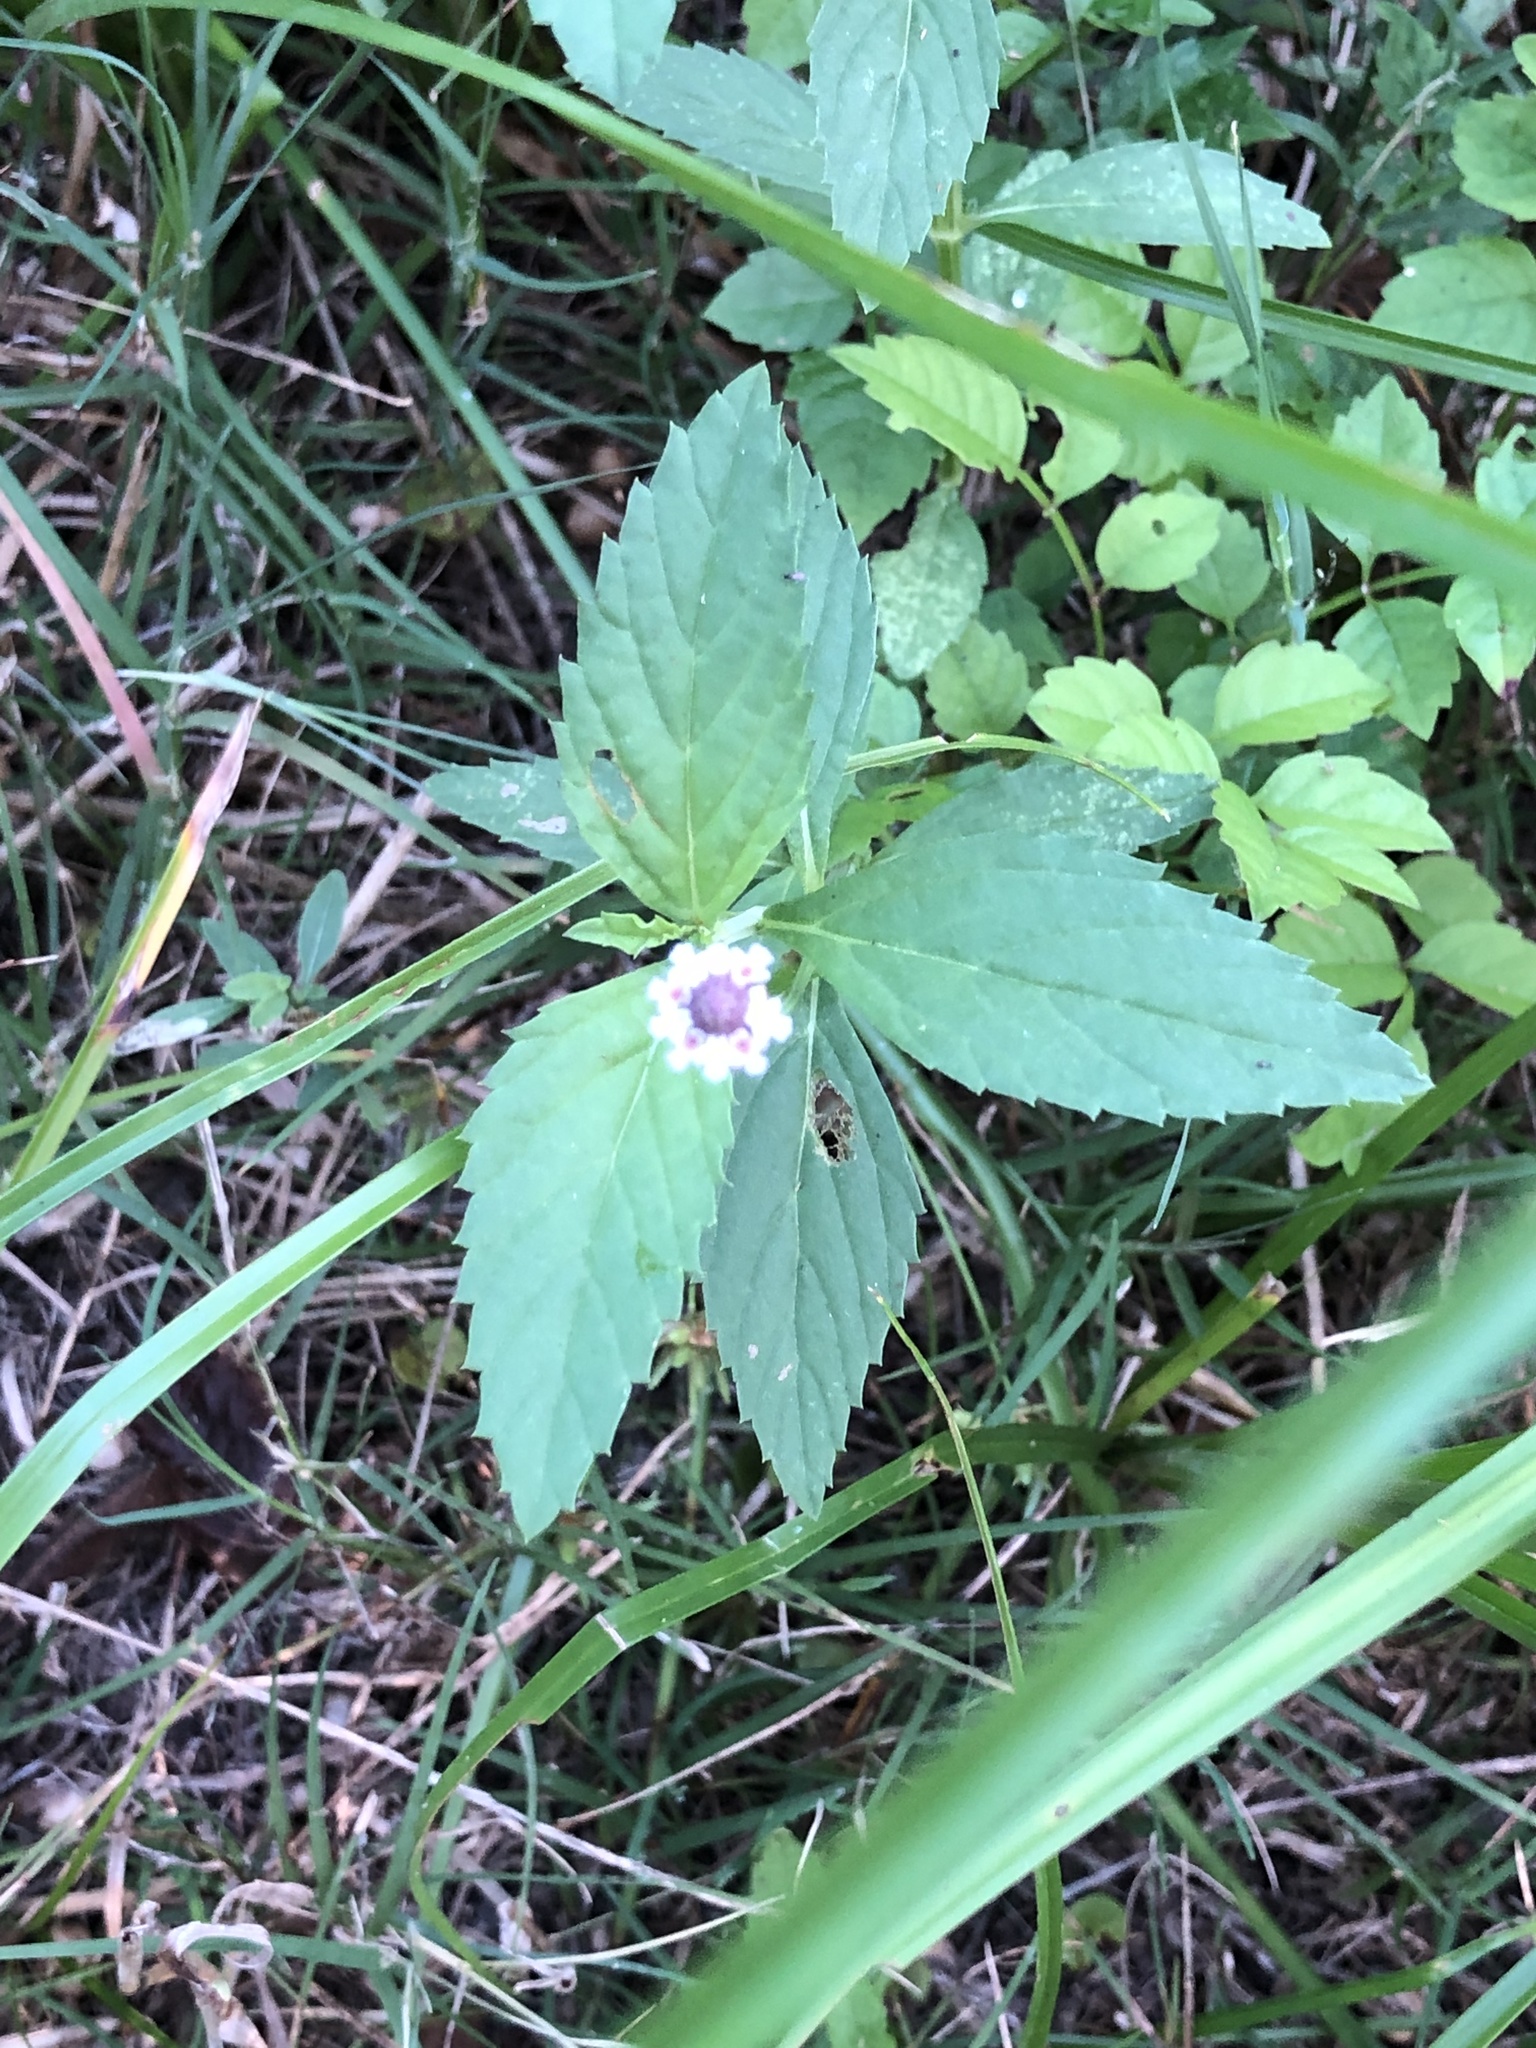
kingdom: Plantae
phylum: Tracheophyta
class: Magnoliopsida
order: Lamiales
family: Verbenaceae
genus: Phyla
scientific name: Phyla lanceolata
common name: Northern fogfruit
